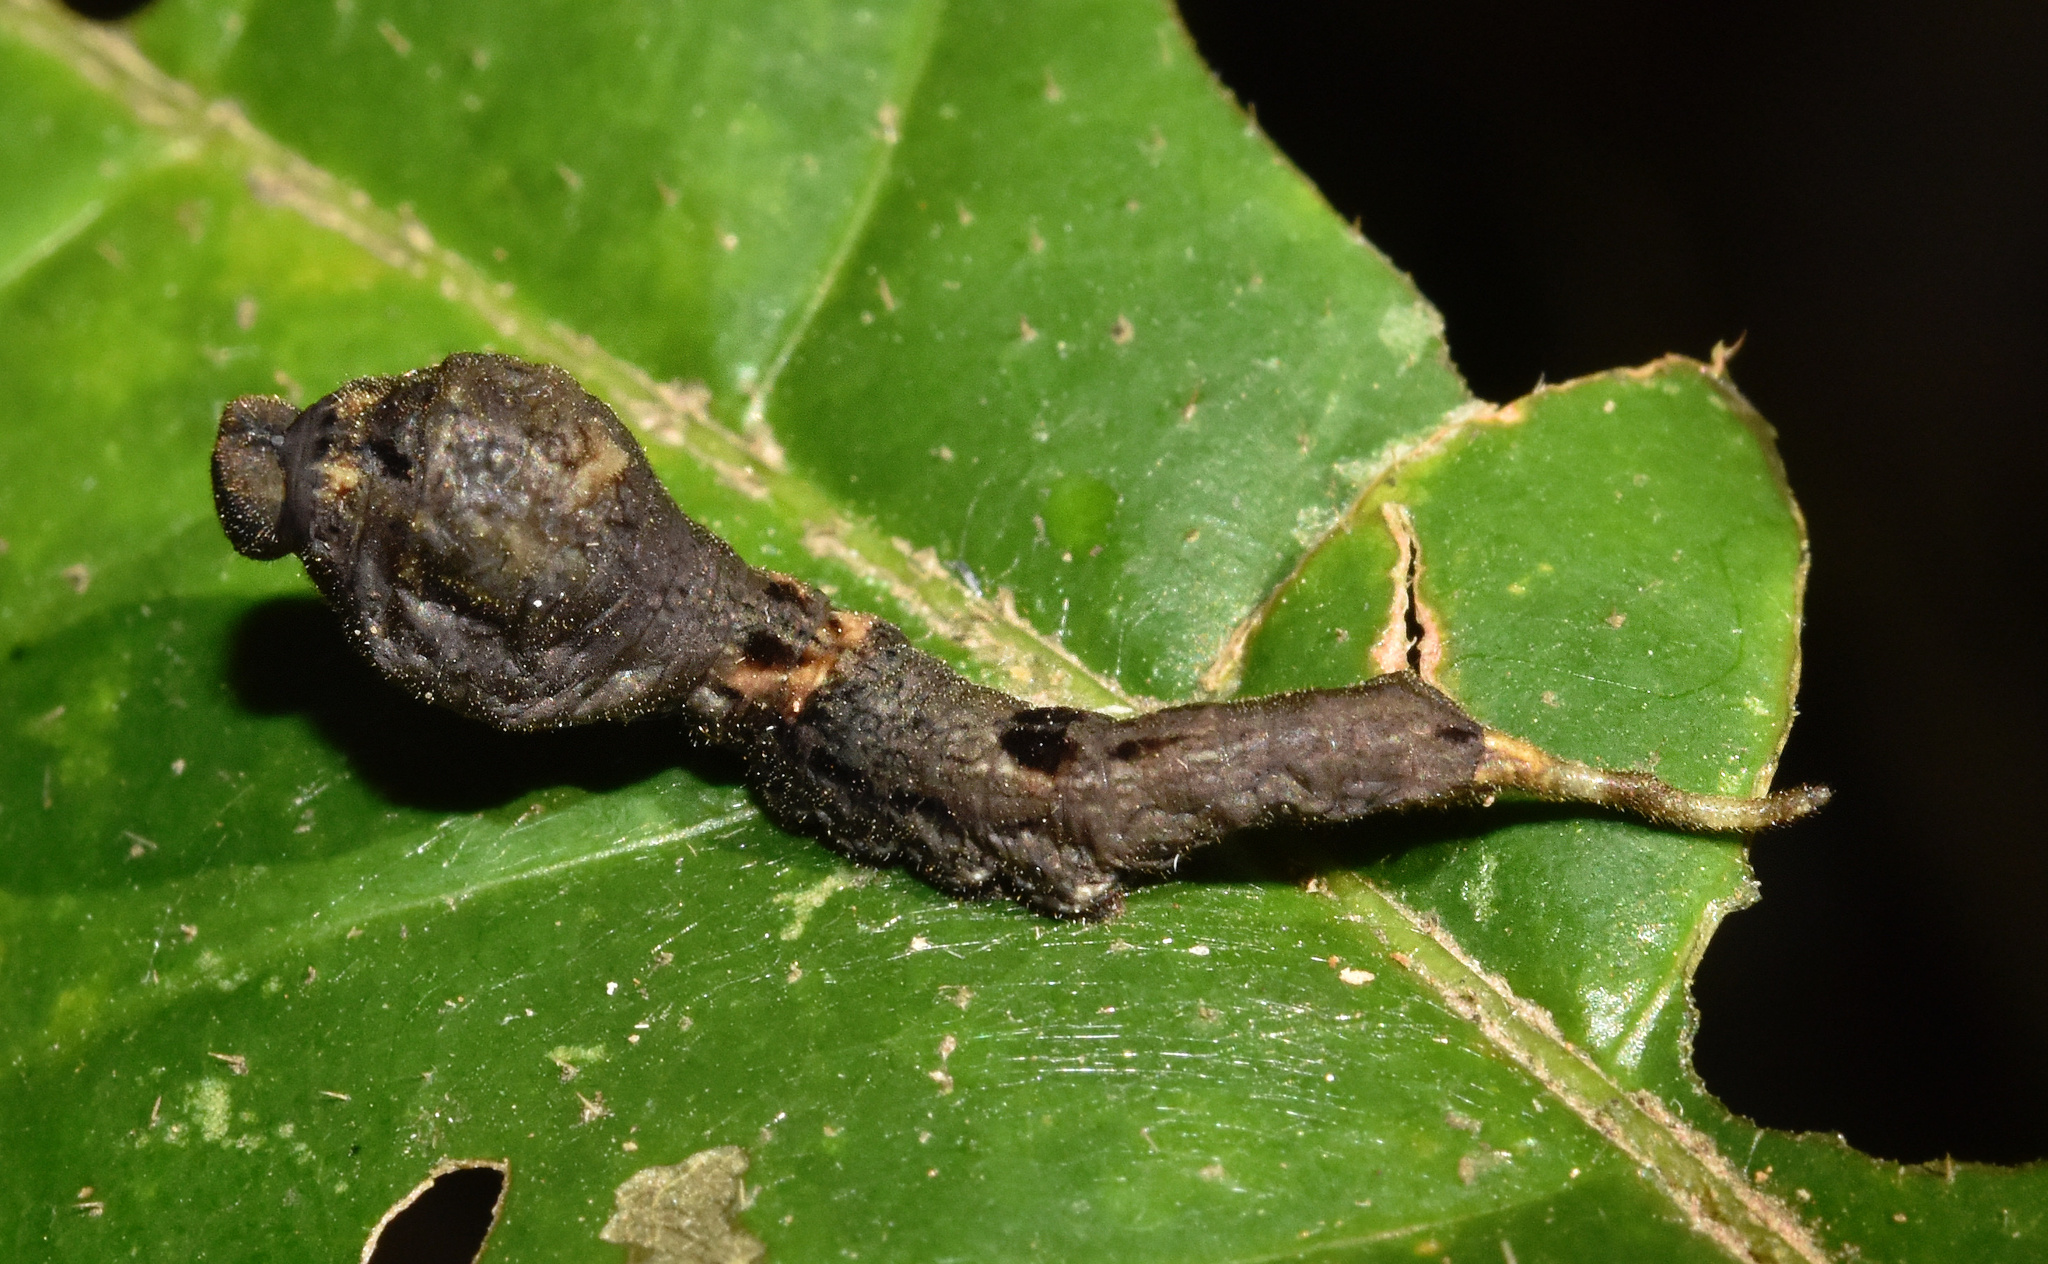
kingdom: Animalia
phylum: Arthropoda
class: Insecta
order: Lepidoptera
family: Drepanidae
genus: Negera
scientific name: Negera natalensis
